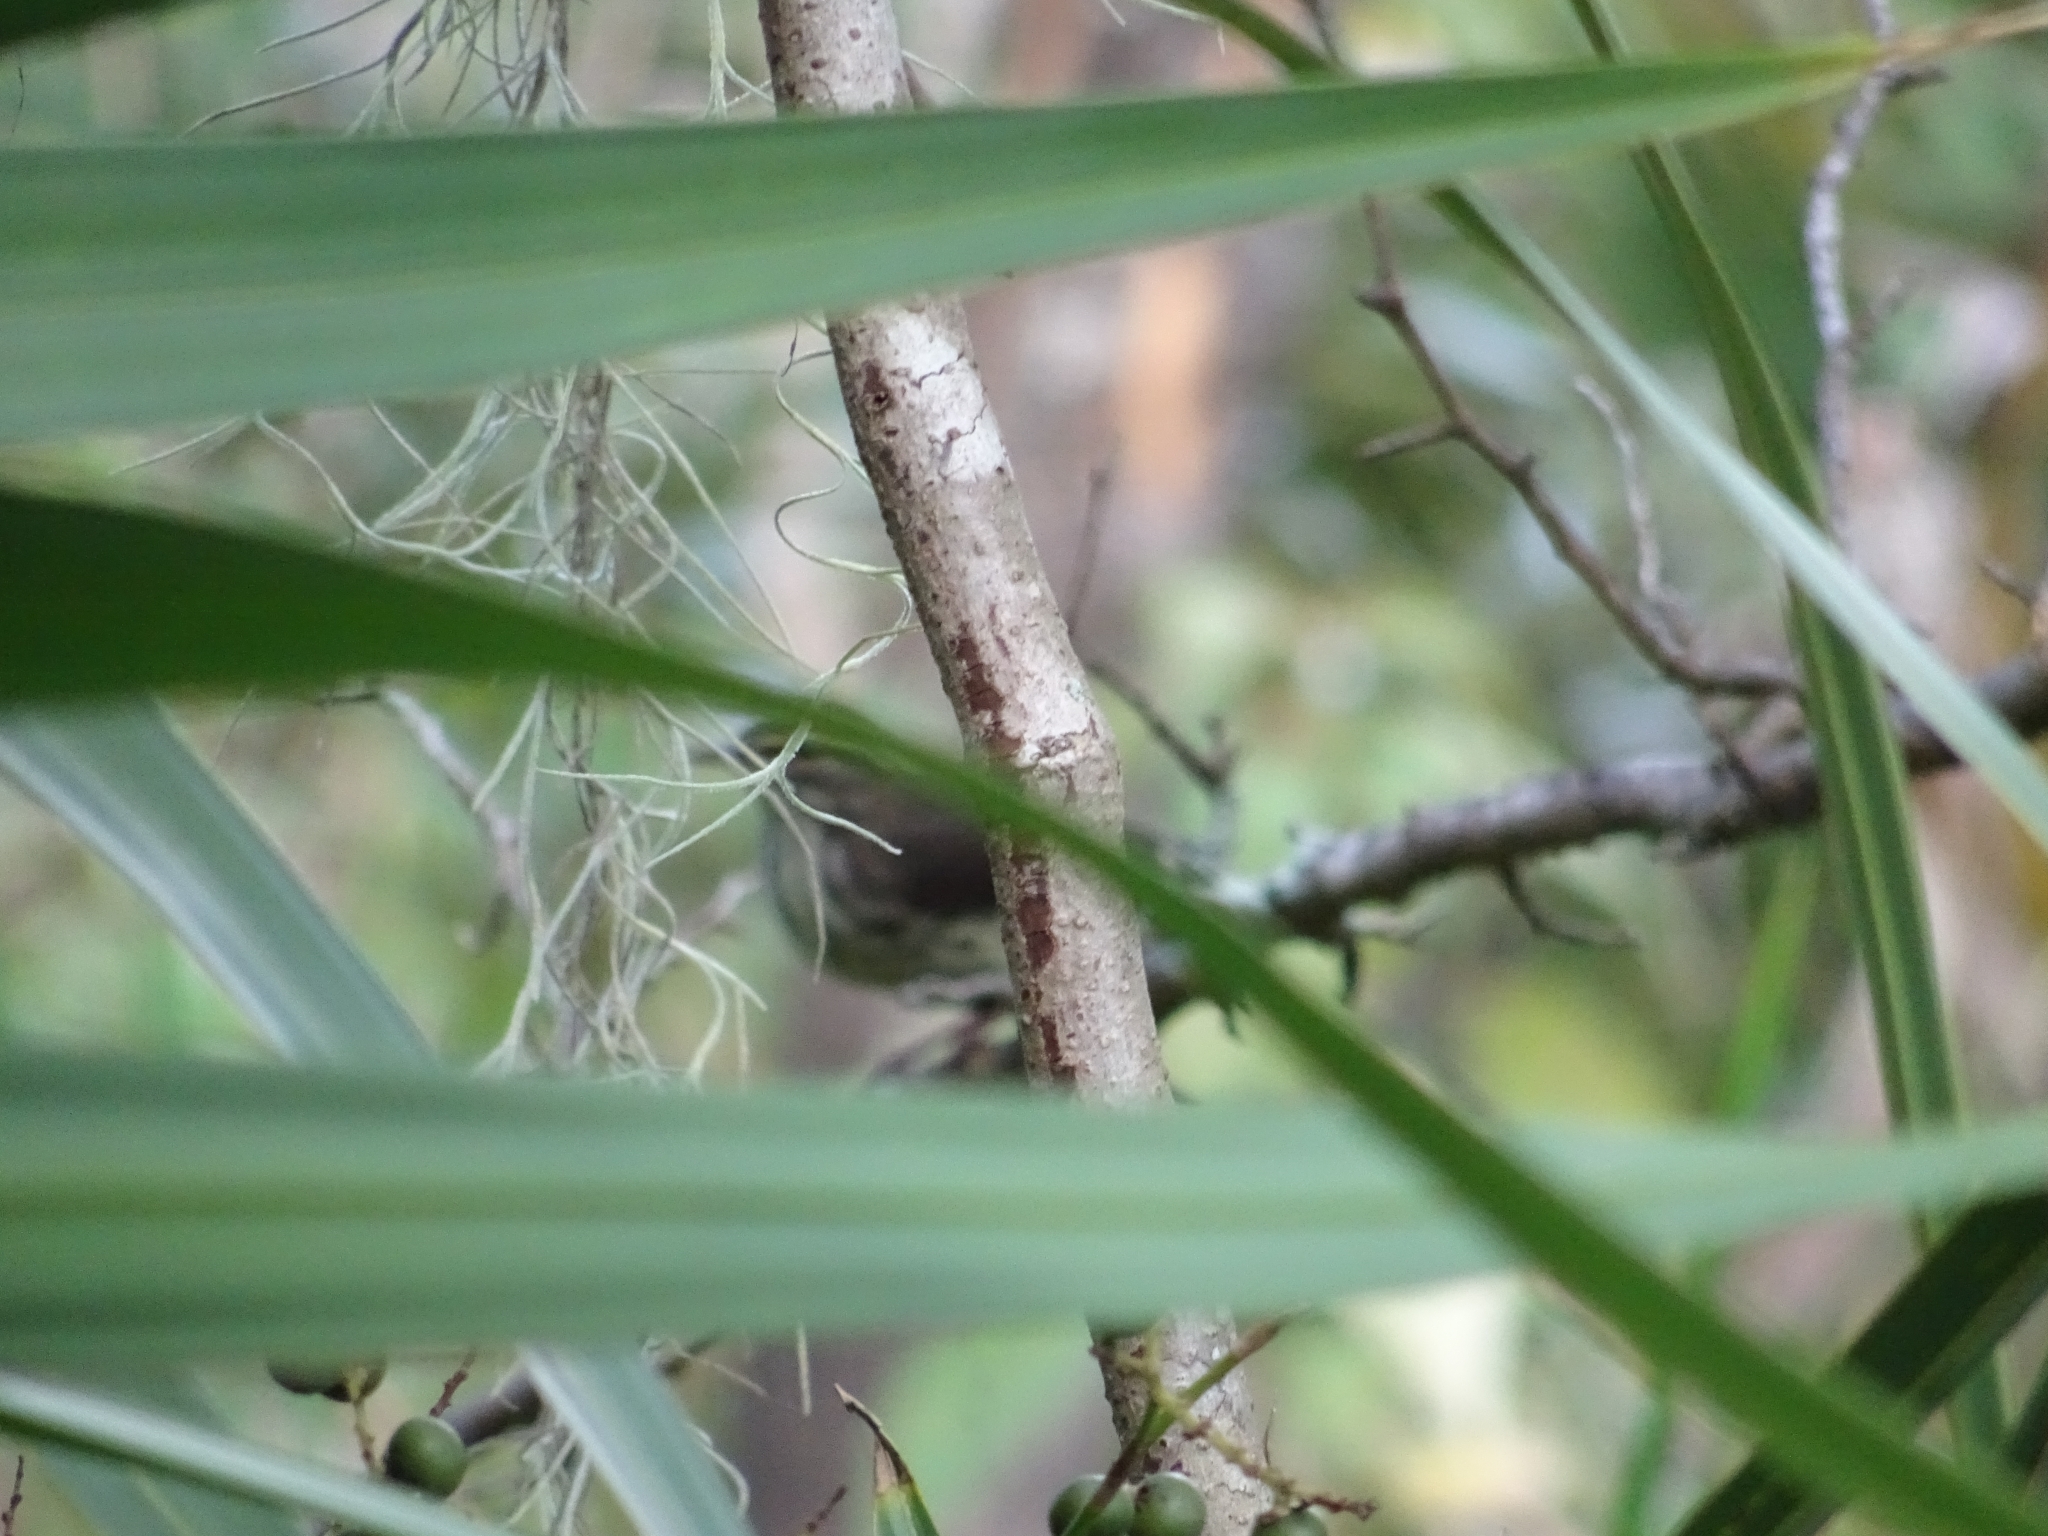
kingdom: Animalia
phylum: Chordata
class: Aves
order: Passeriformes
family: Parulidae
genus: Parkesia
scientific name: Parkesia noveboracensis
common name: Northern waterthrush
